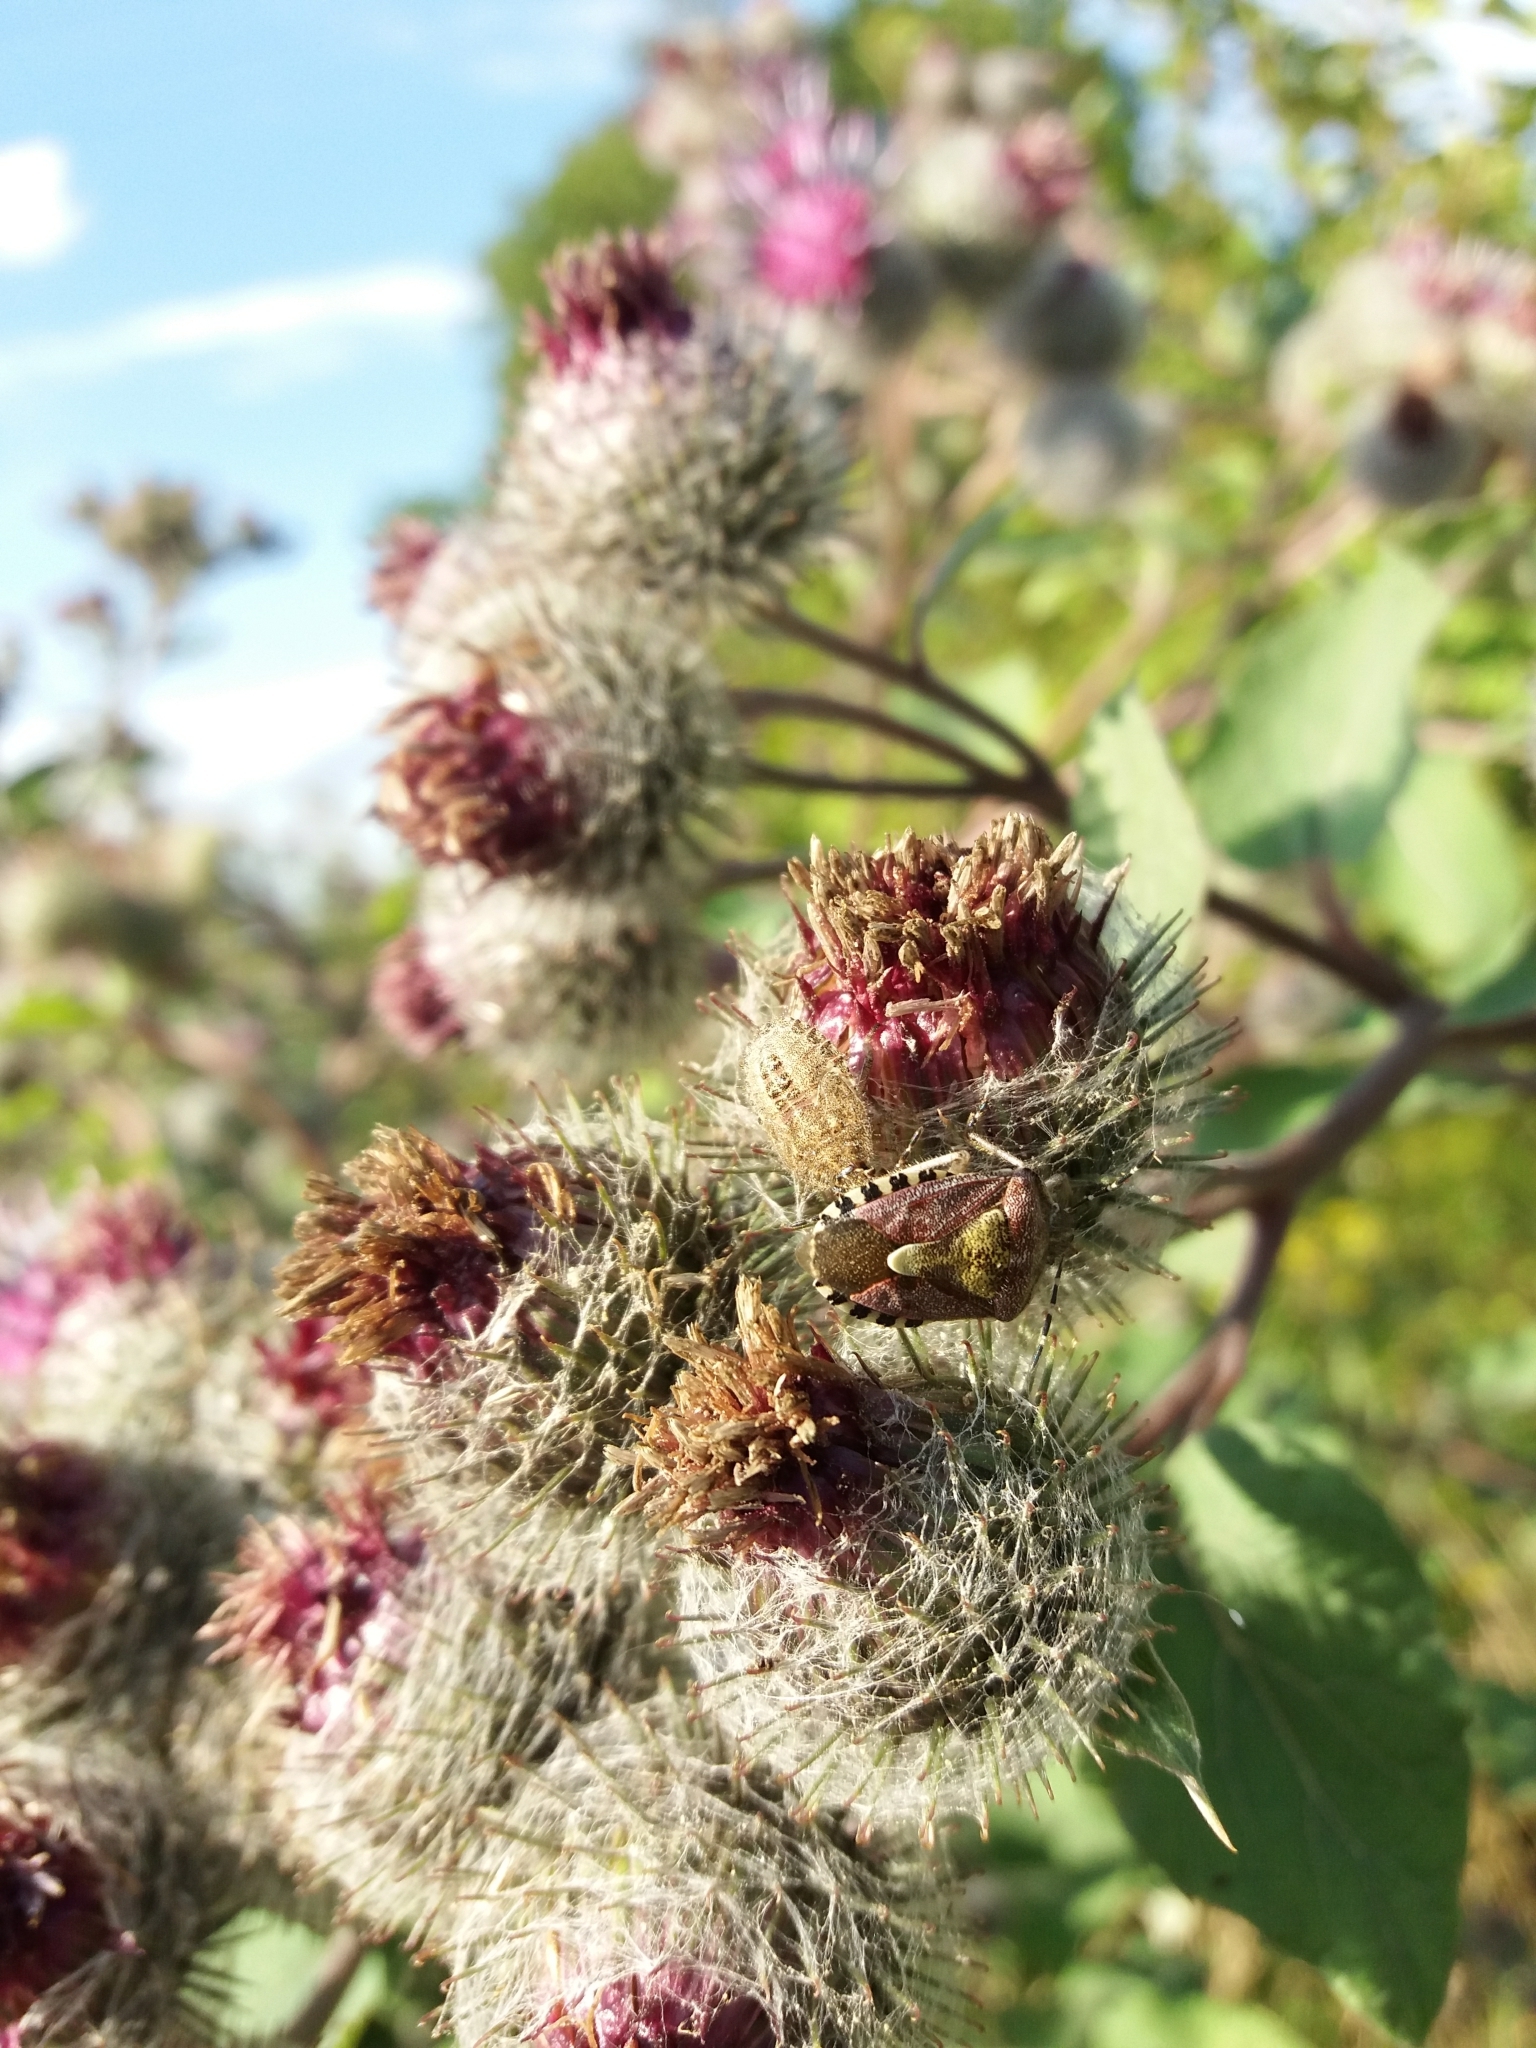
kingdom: Animalia
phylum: Arthropoda
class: Insecta
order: Hemiptera
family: Pentatomidae
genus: Dolycoris
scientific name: Dolycoris baccarum
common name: Sloe bug
